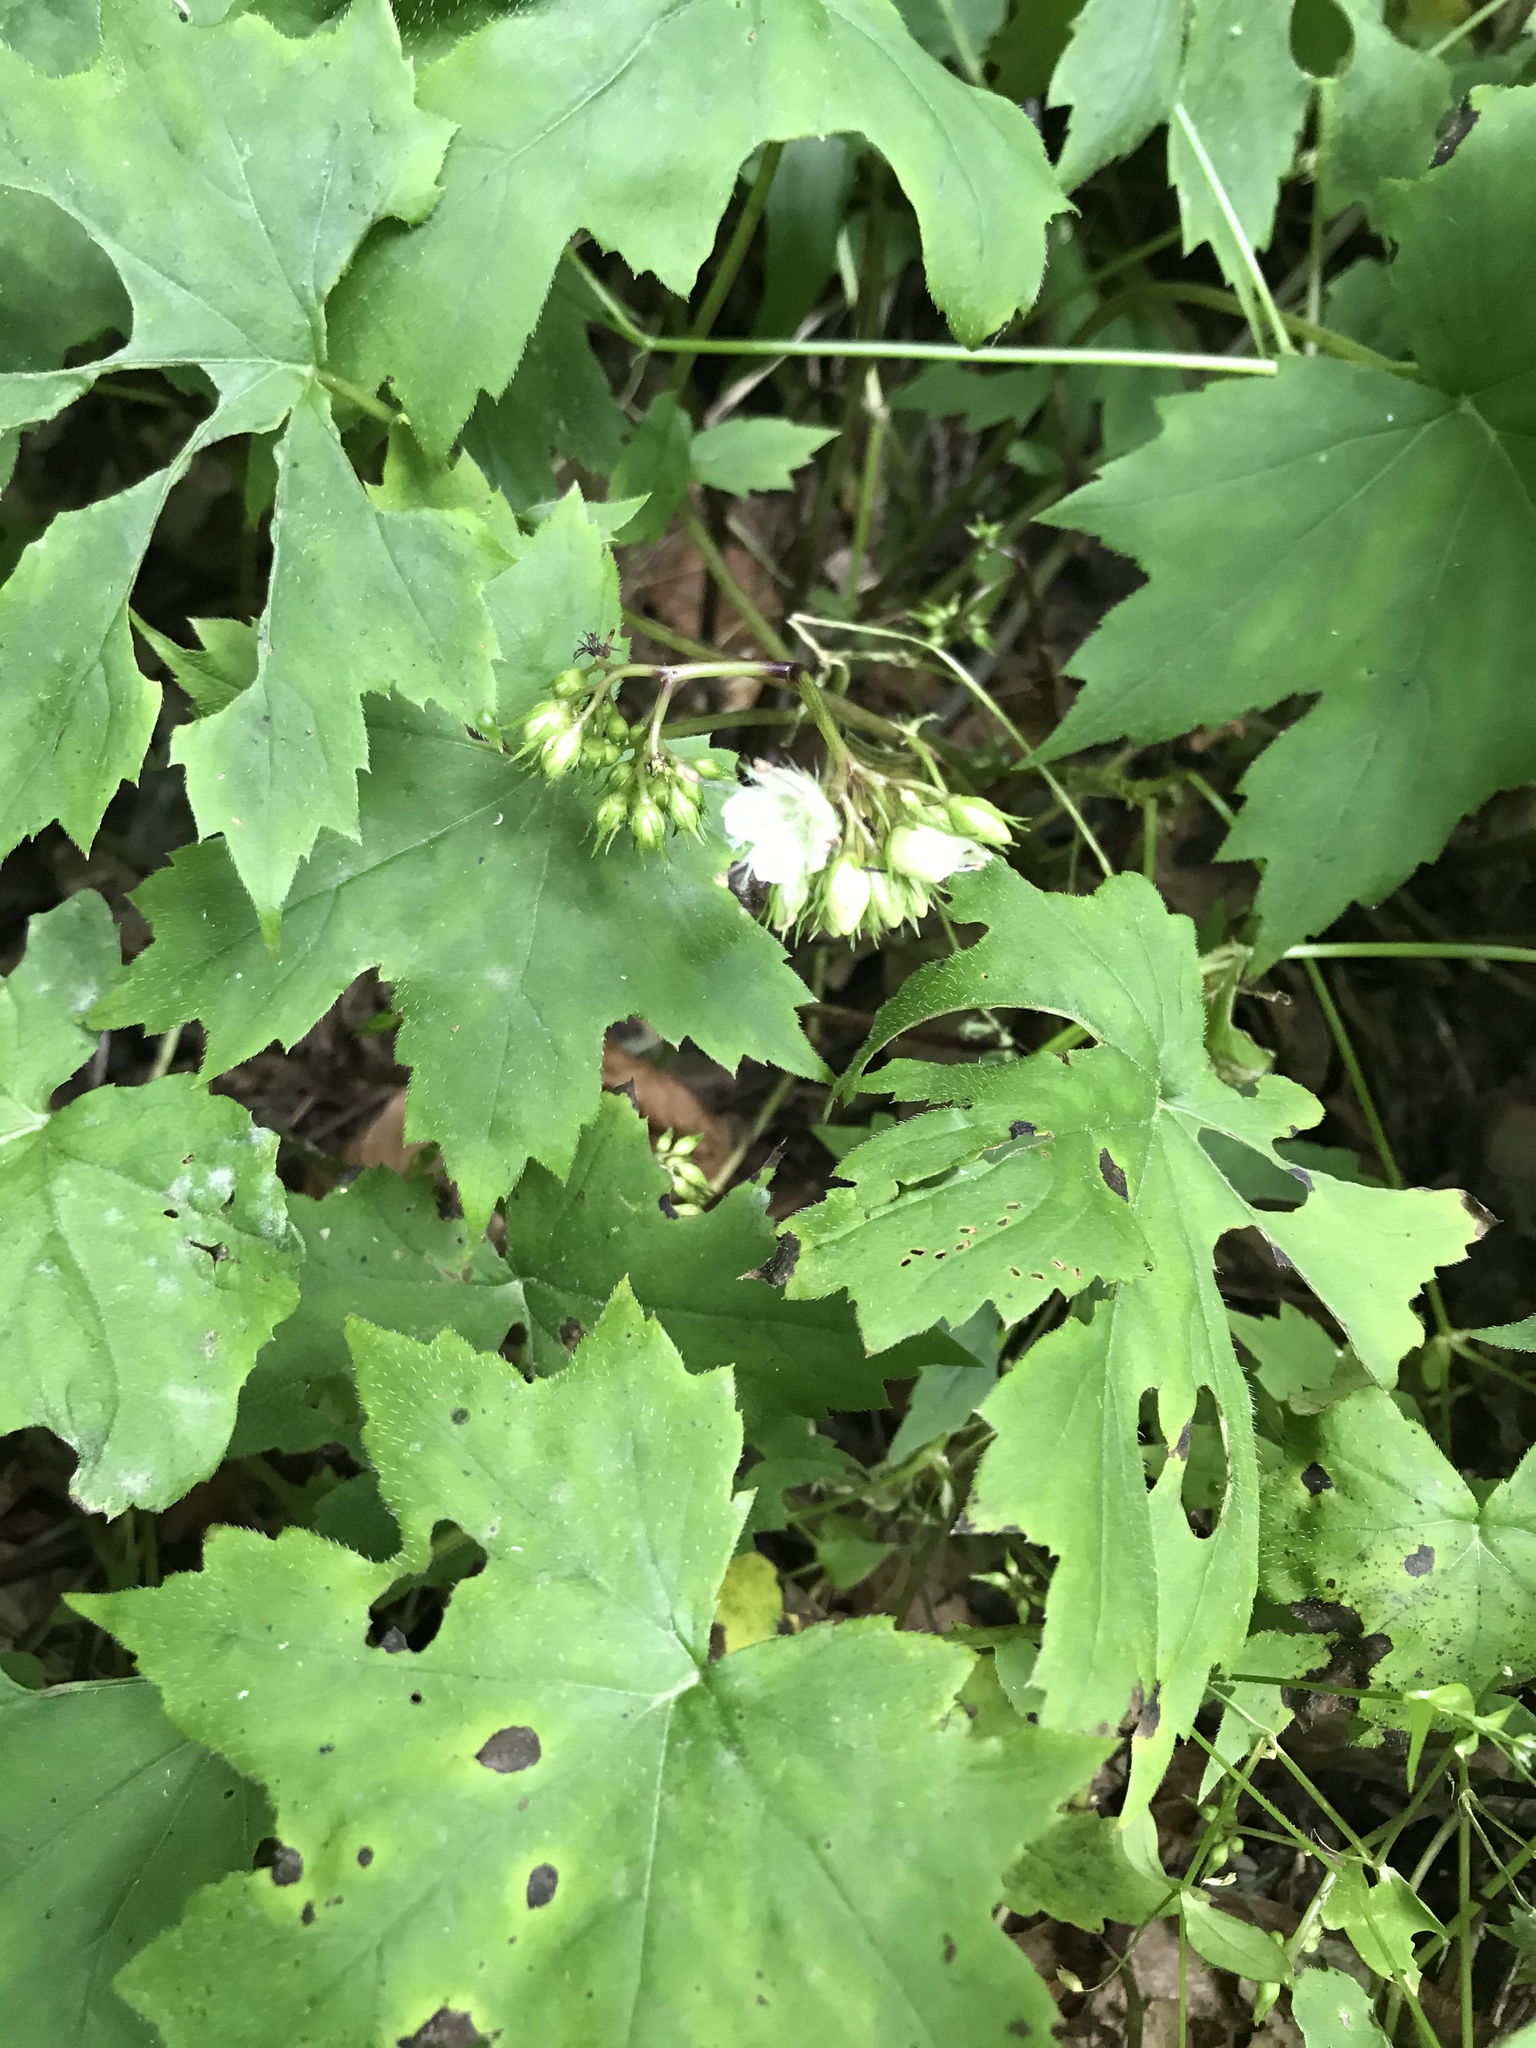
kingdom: Plantae
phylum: Tracheophyta
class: Magnoliopsida
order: Boraginales
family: Hydrophyllaceae
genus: Hydrophyllum
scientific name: Hydrophyllum canadense
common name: Canada waterleaf
